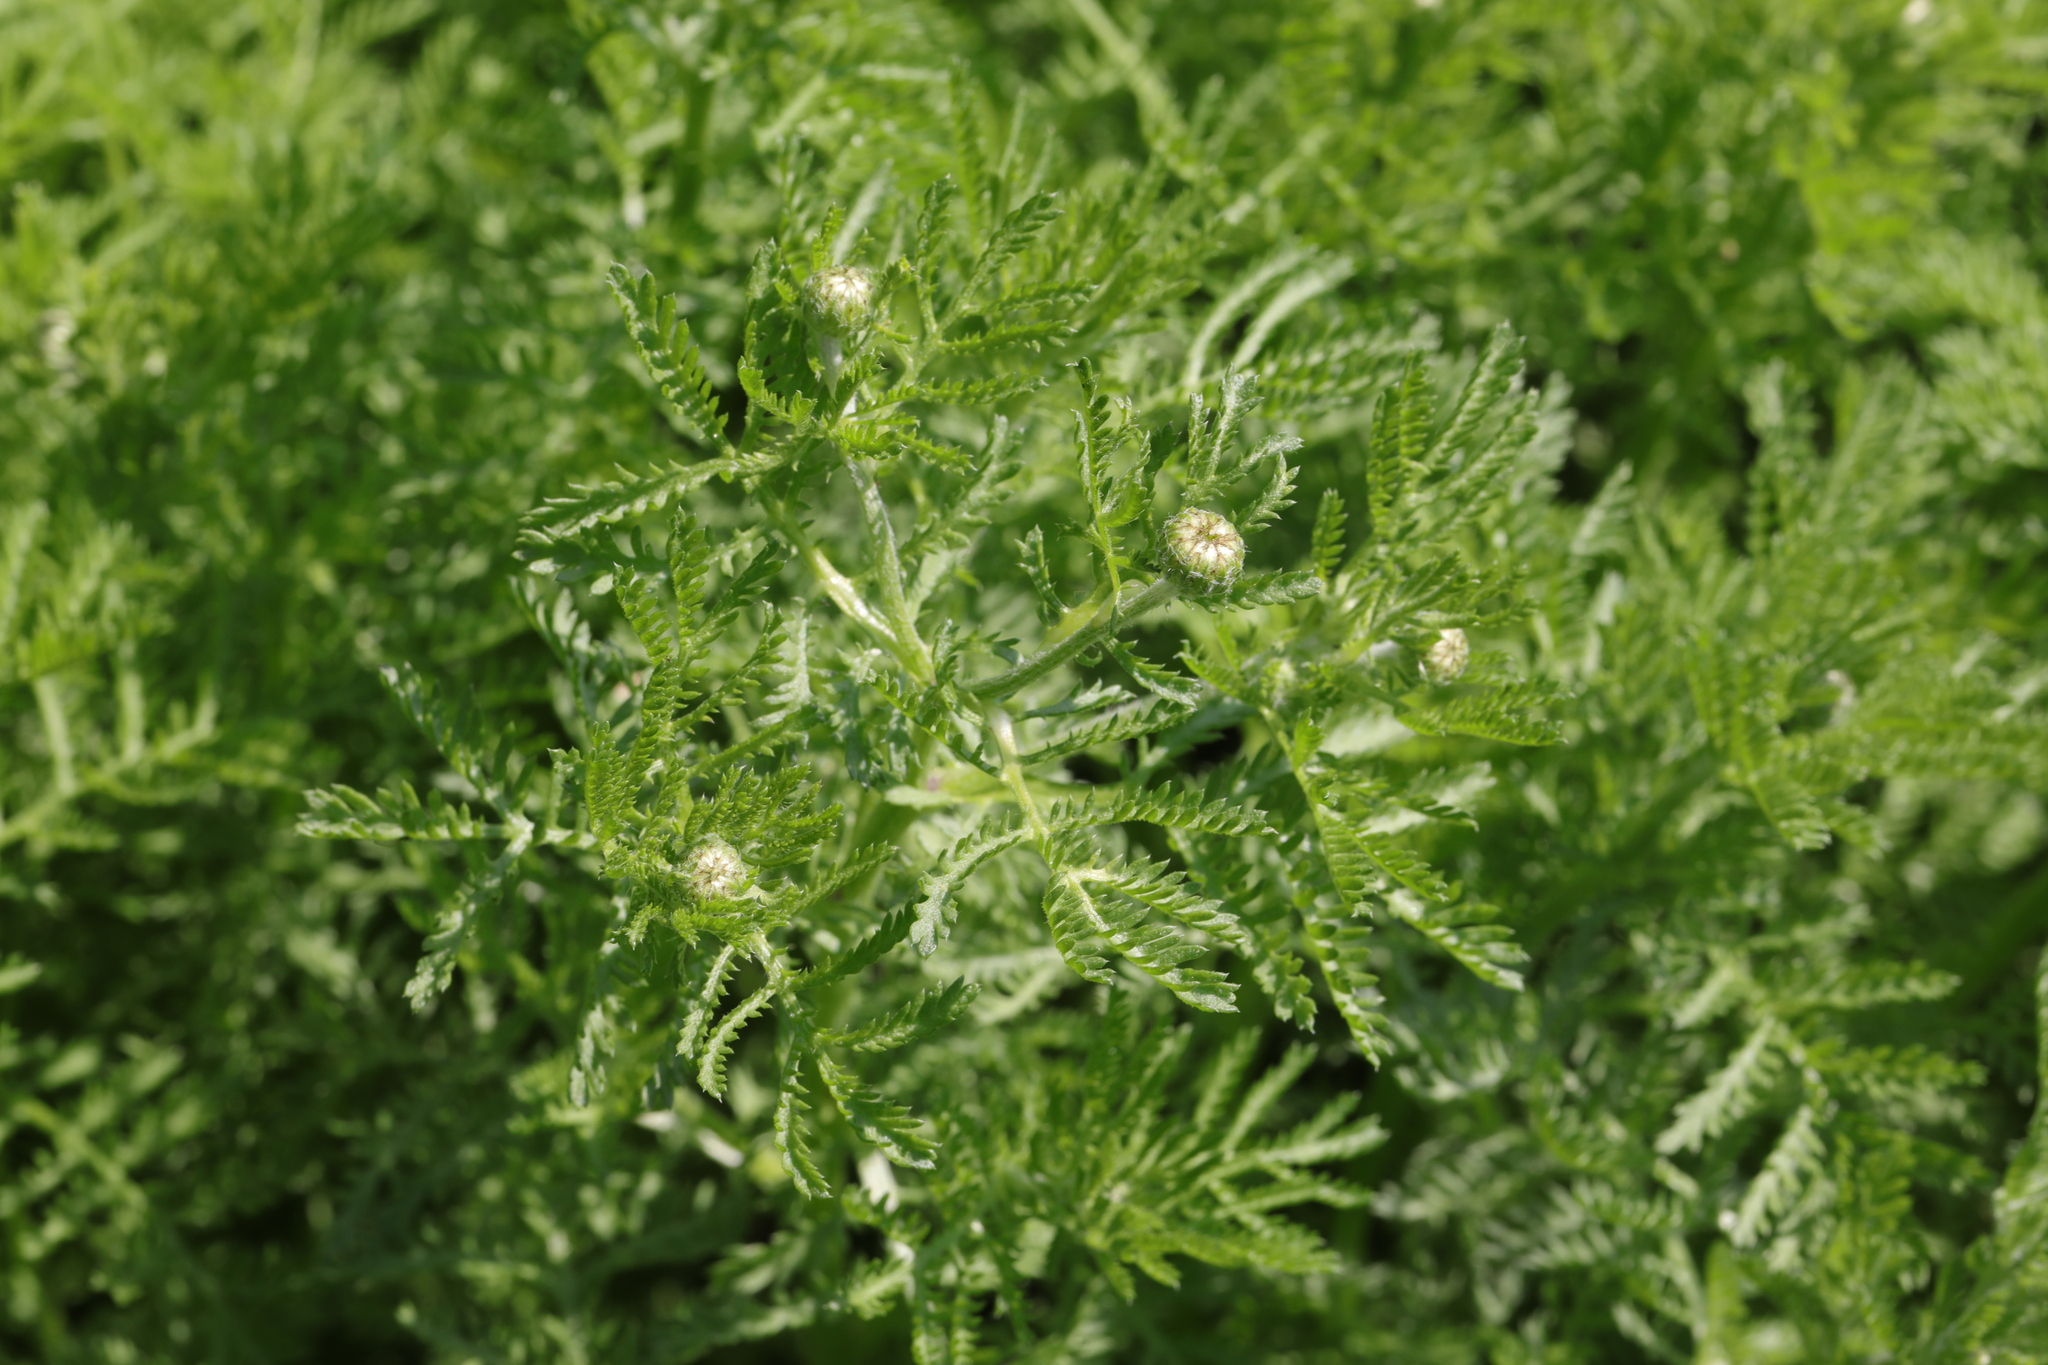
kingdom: Plantae
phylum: Tracheophyta
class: Magnoliopsida
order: Asterales
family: Asteraceae
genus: Cota
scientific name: Cota austriaca
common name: Austrian chamomile
